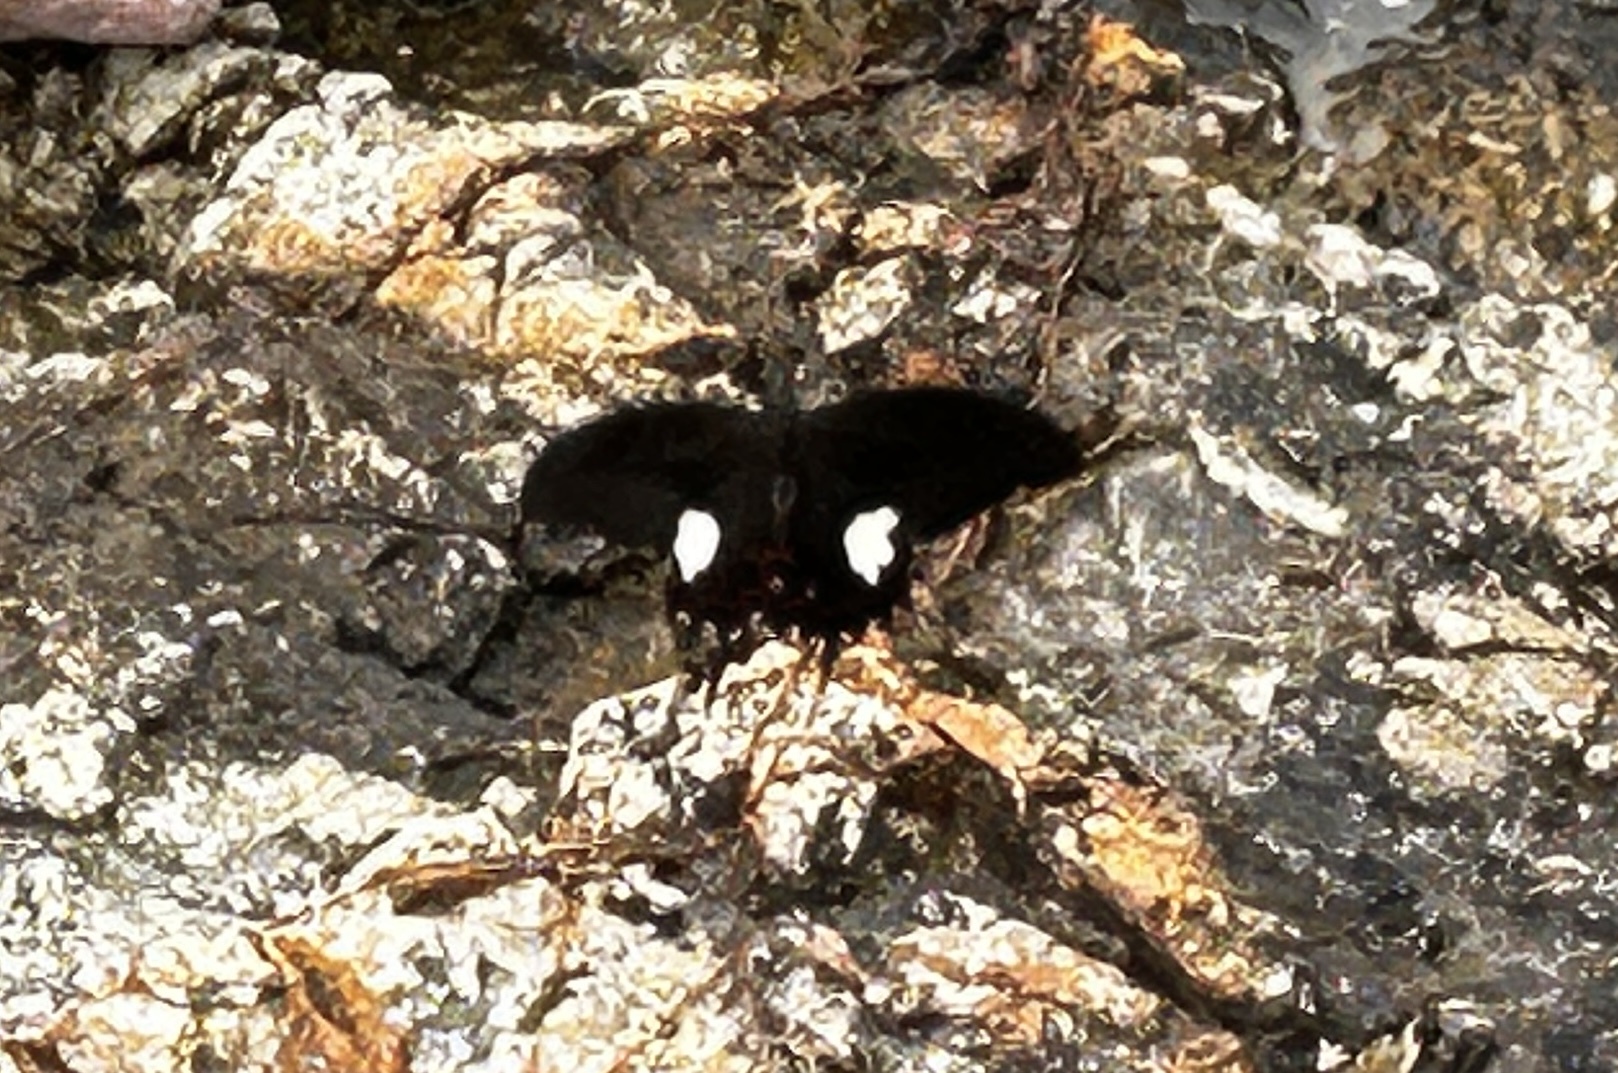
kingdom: Animalia
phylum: Arthropoda
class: Insecta
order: Lepidoptera
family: Papilionidae
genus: Papilio
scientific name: Papilio helenus
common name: Red helen
